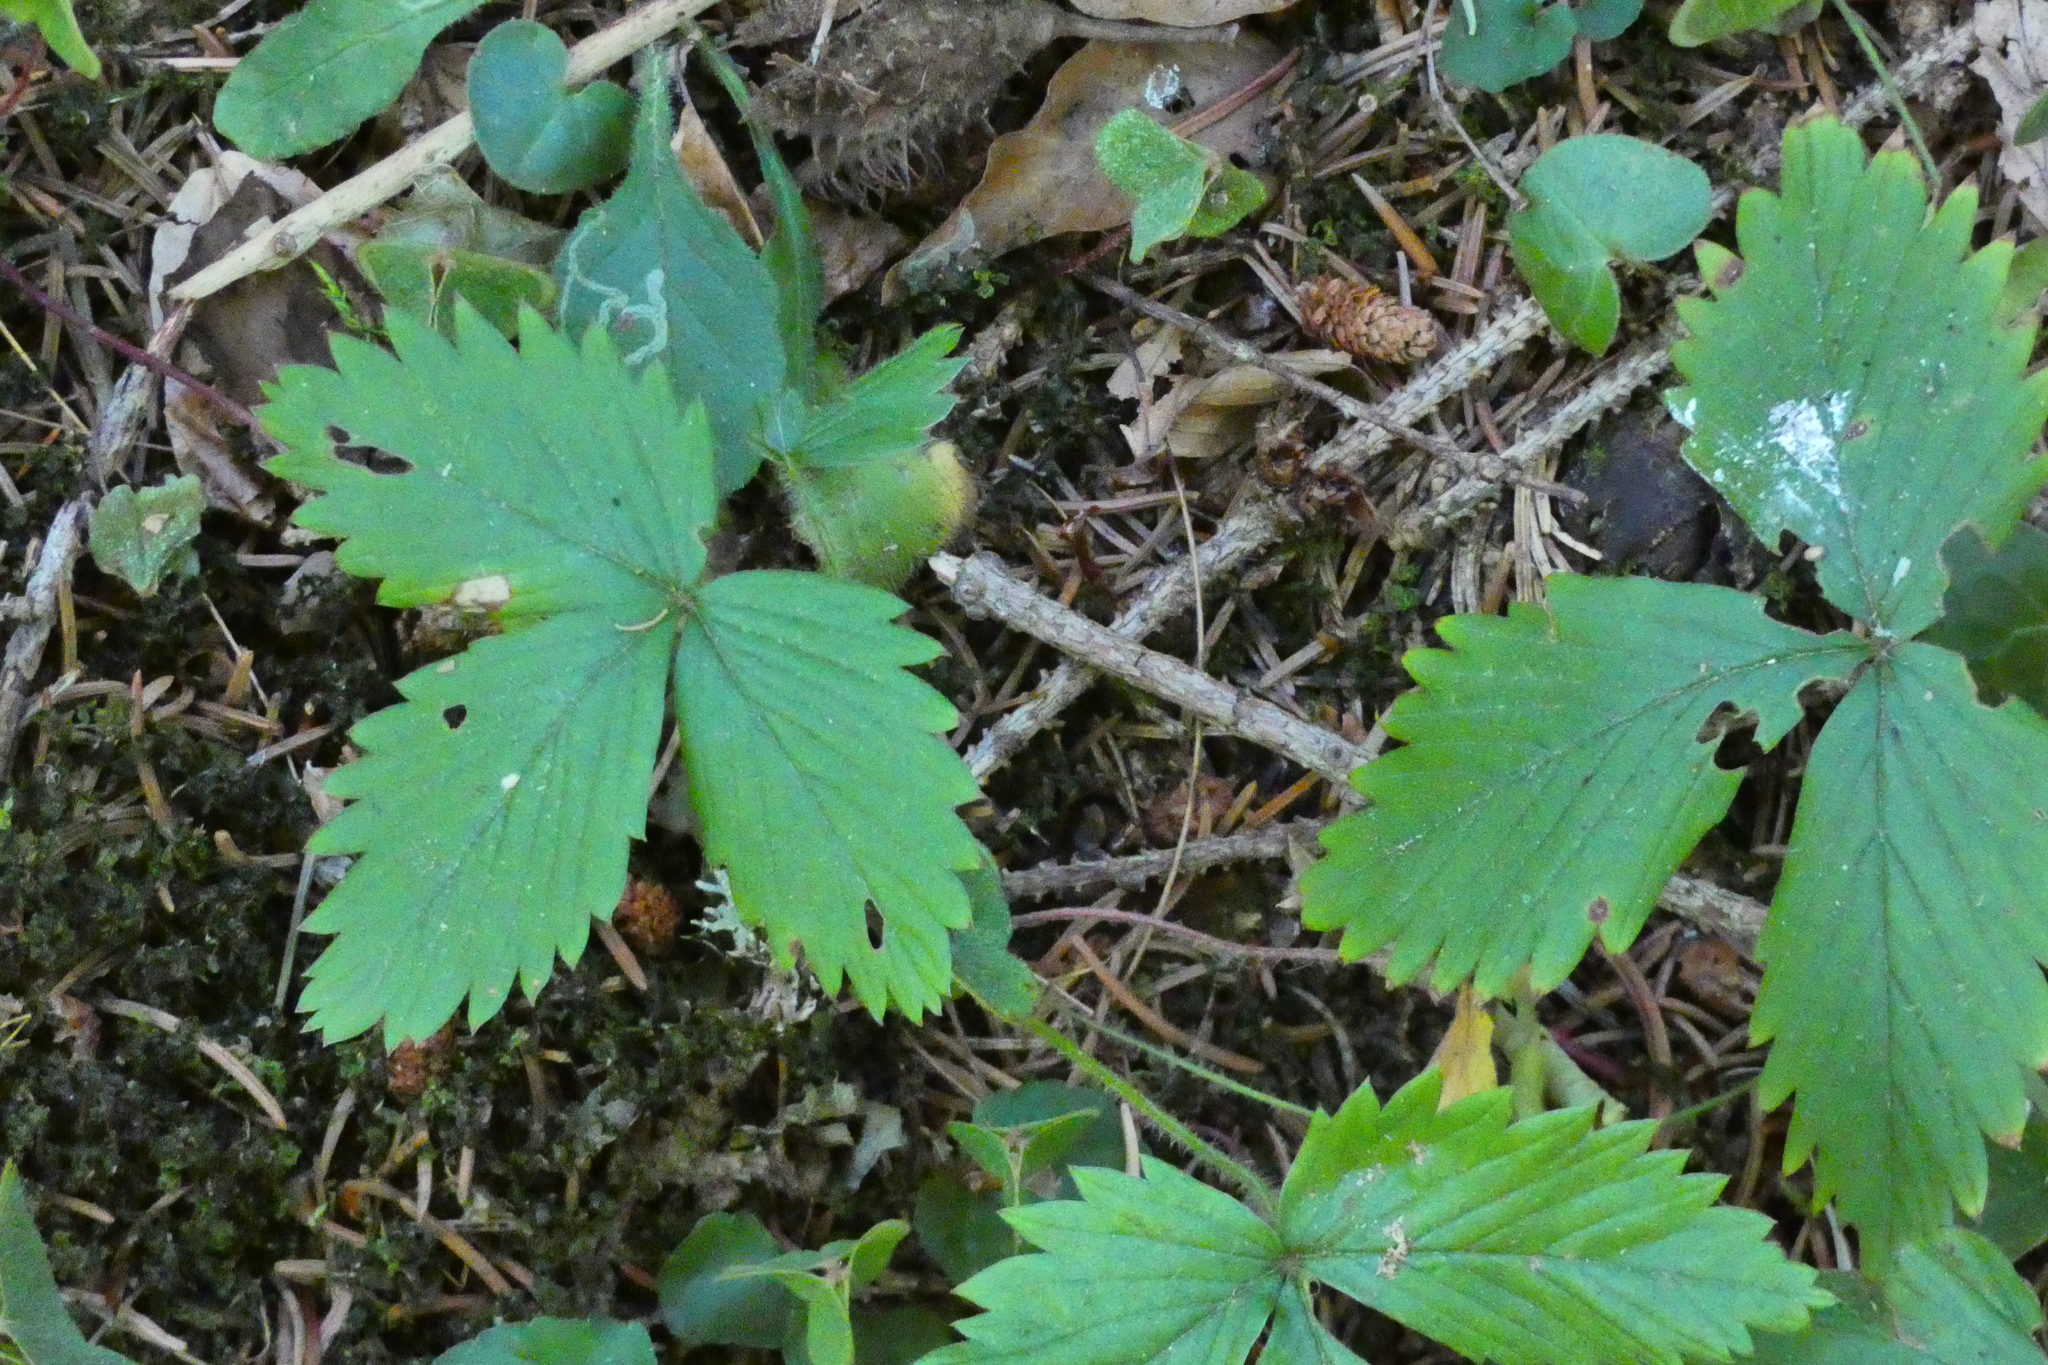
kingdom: Plantae
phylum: Tracheophyta
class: Magnoliopsida
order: Rosales
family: Rosaceae
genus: Fragaria
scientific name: Fragaria vesca
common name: Wild strawberry
